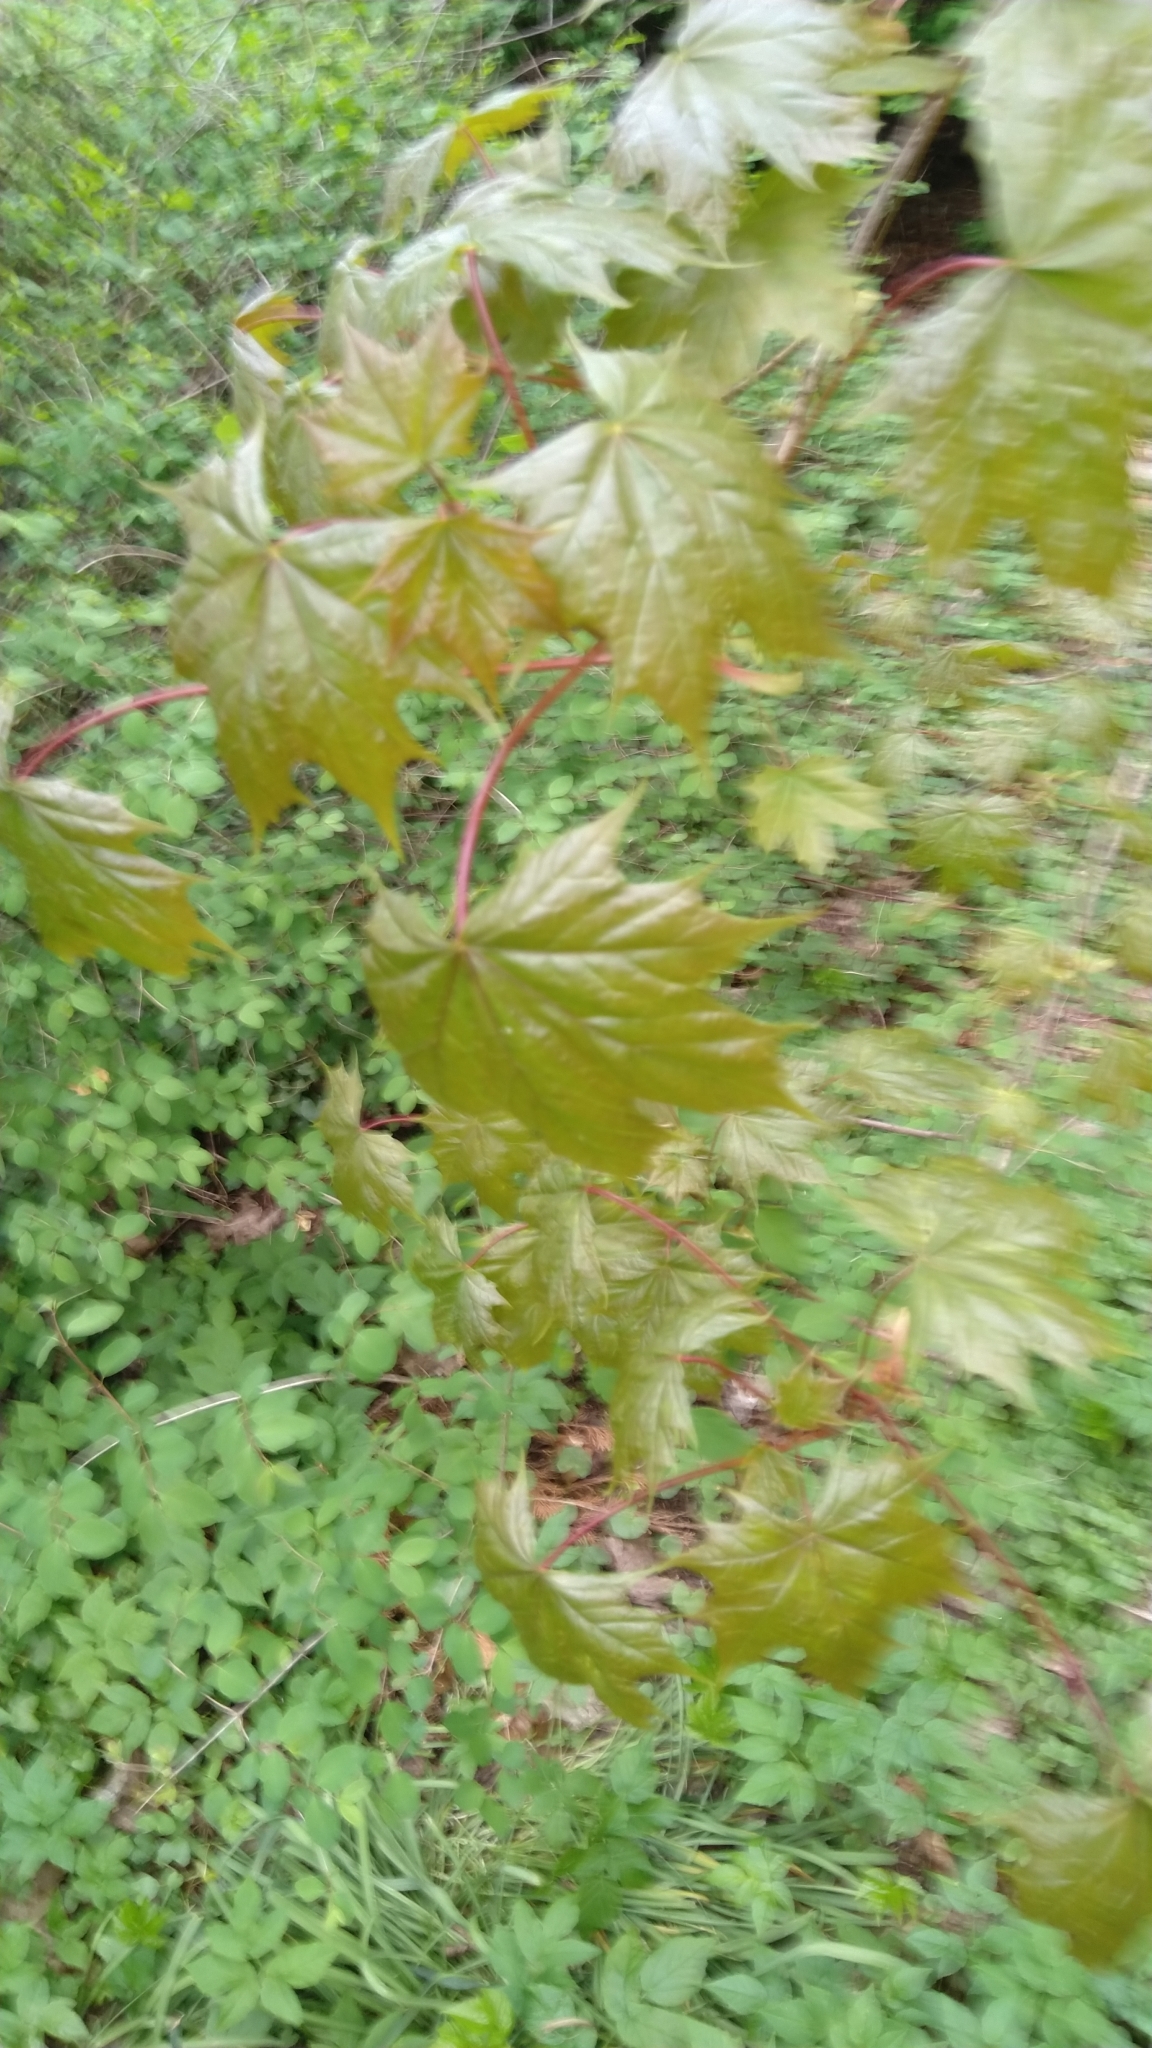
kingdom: Plantae
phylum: Tracheophyta
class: Magnoliopsida
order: Sapindales
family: Sapindaceae
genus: Acer
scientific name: Acer platanoides
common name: Norway maple
